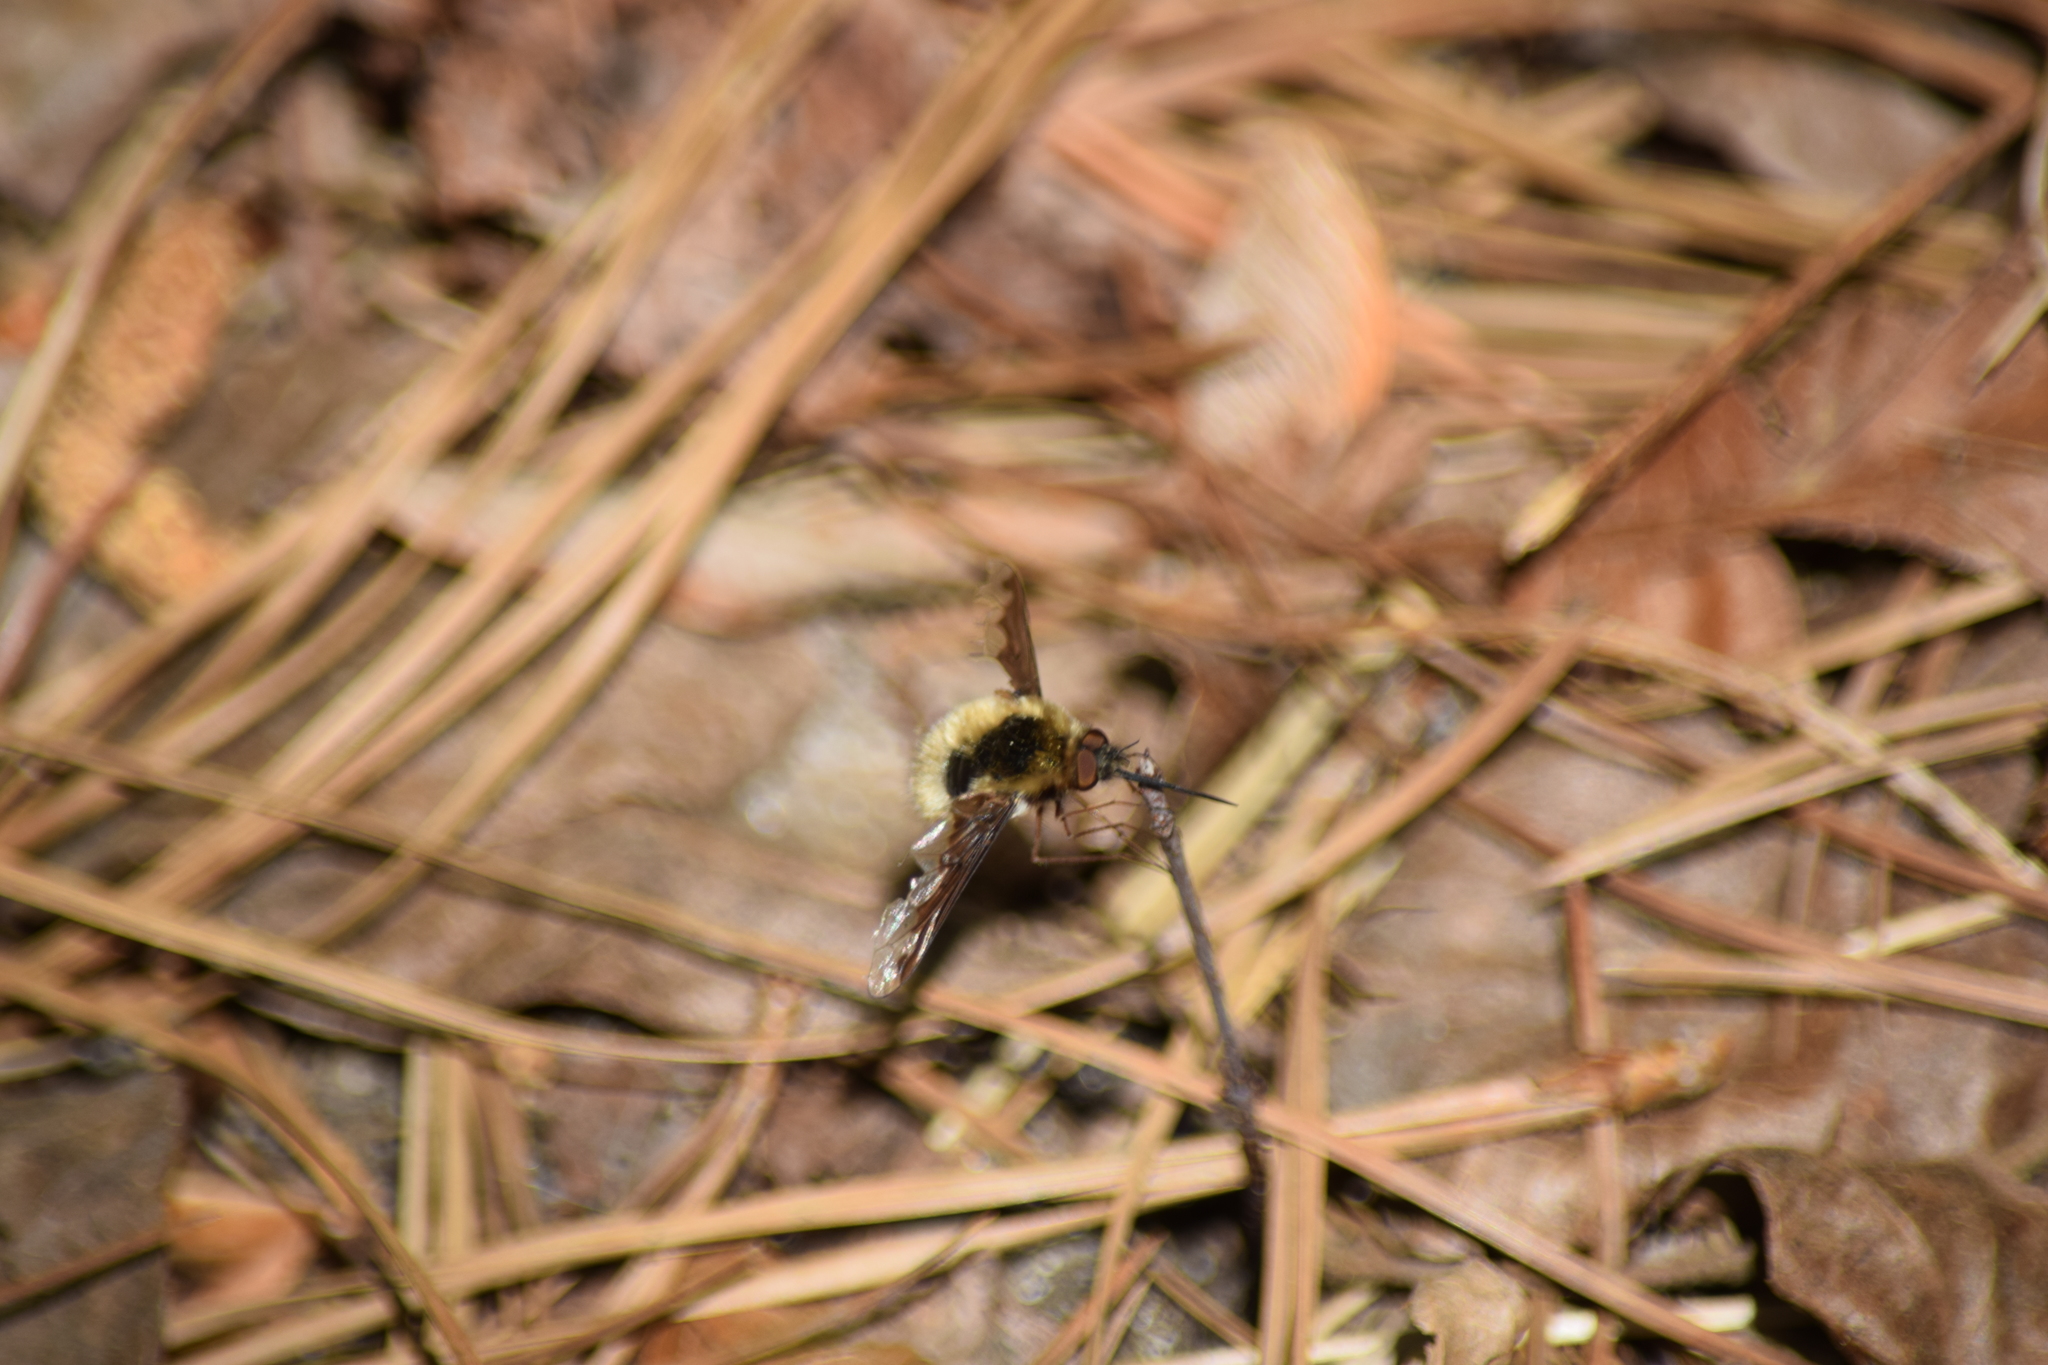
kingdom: Animalia
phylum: Arthropoda
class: Insecta
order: Diptera
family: Bombyliidae
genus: Bombylius
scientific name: Bombylius major
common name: Bee fly
